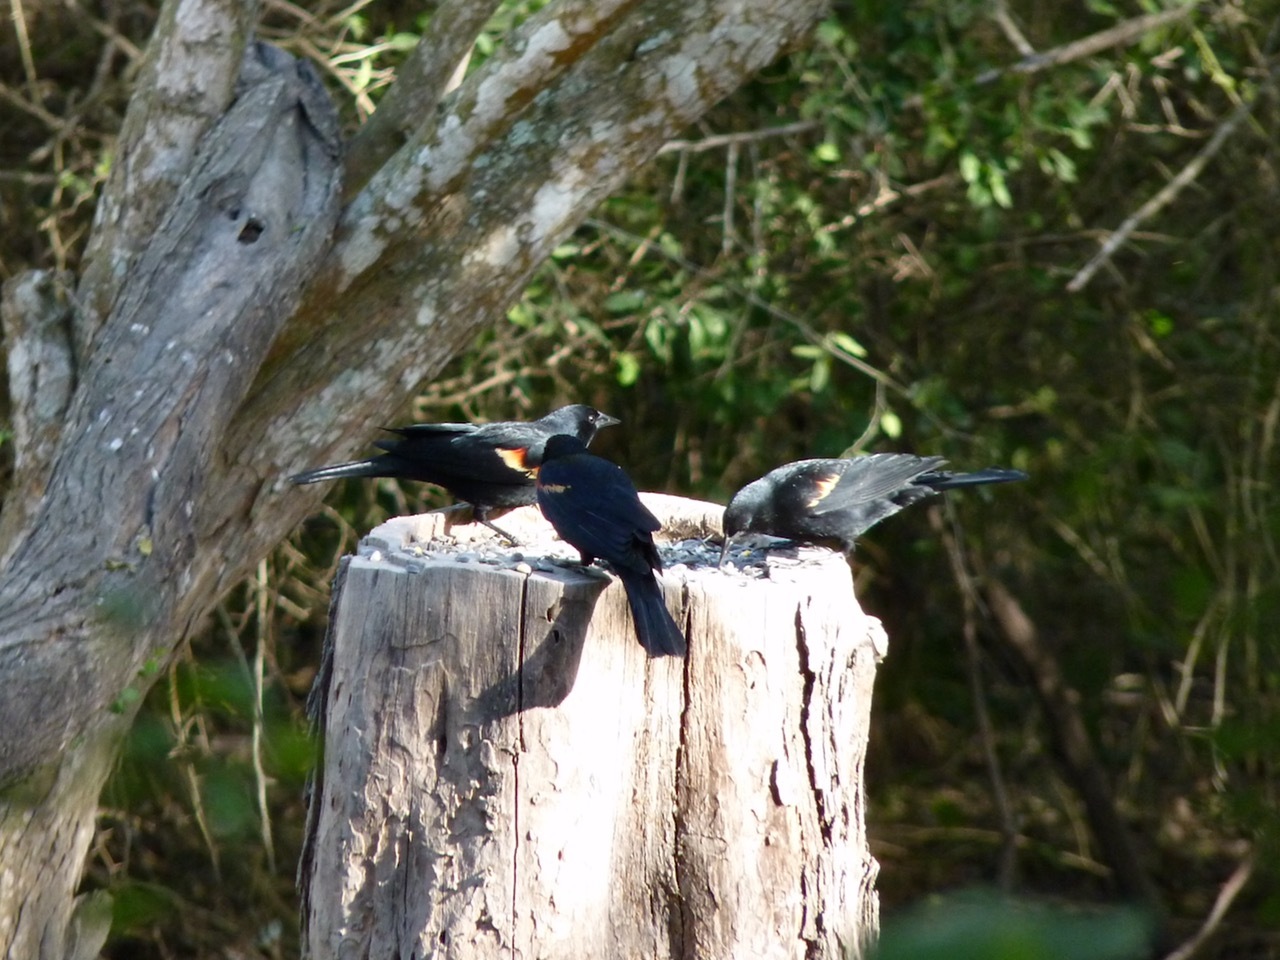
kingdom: Animalia
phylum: Chordata
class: Aves
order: Passeriformes
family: Icteridae
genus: Agelaius
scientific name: Agelaius phoeniceus
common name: Red-winged blackbird
